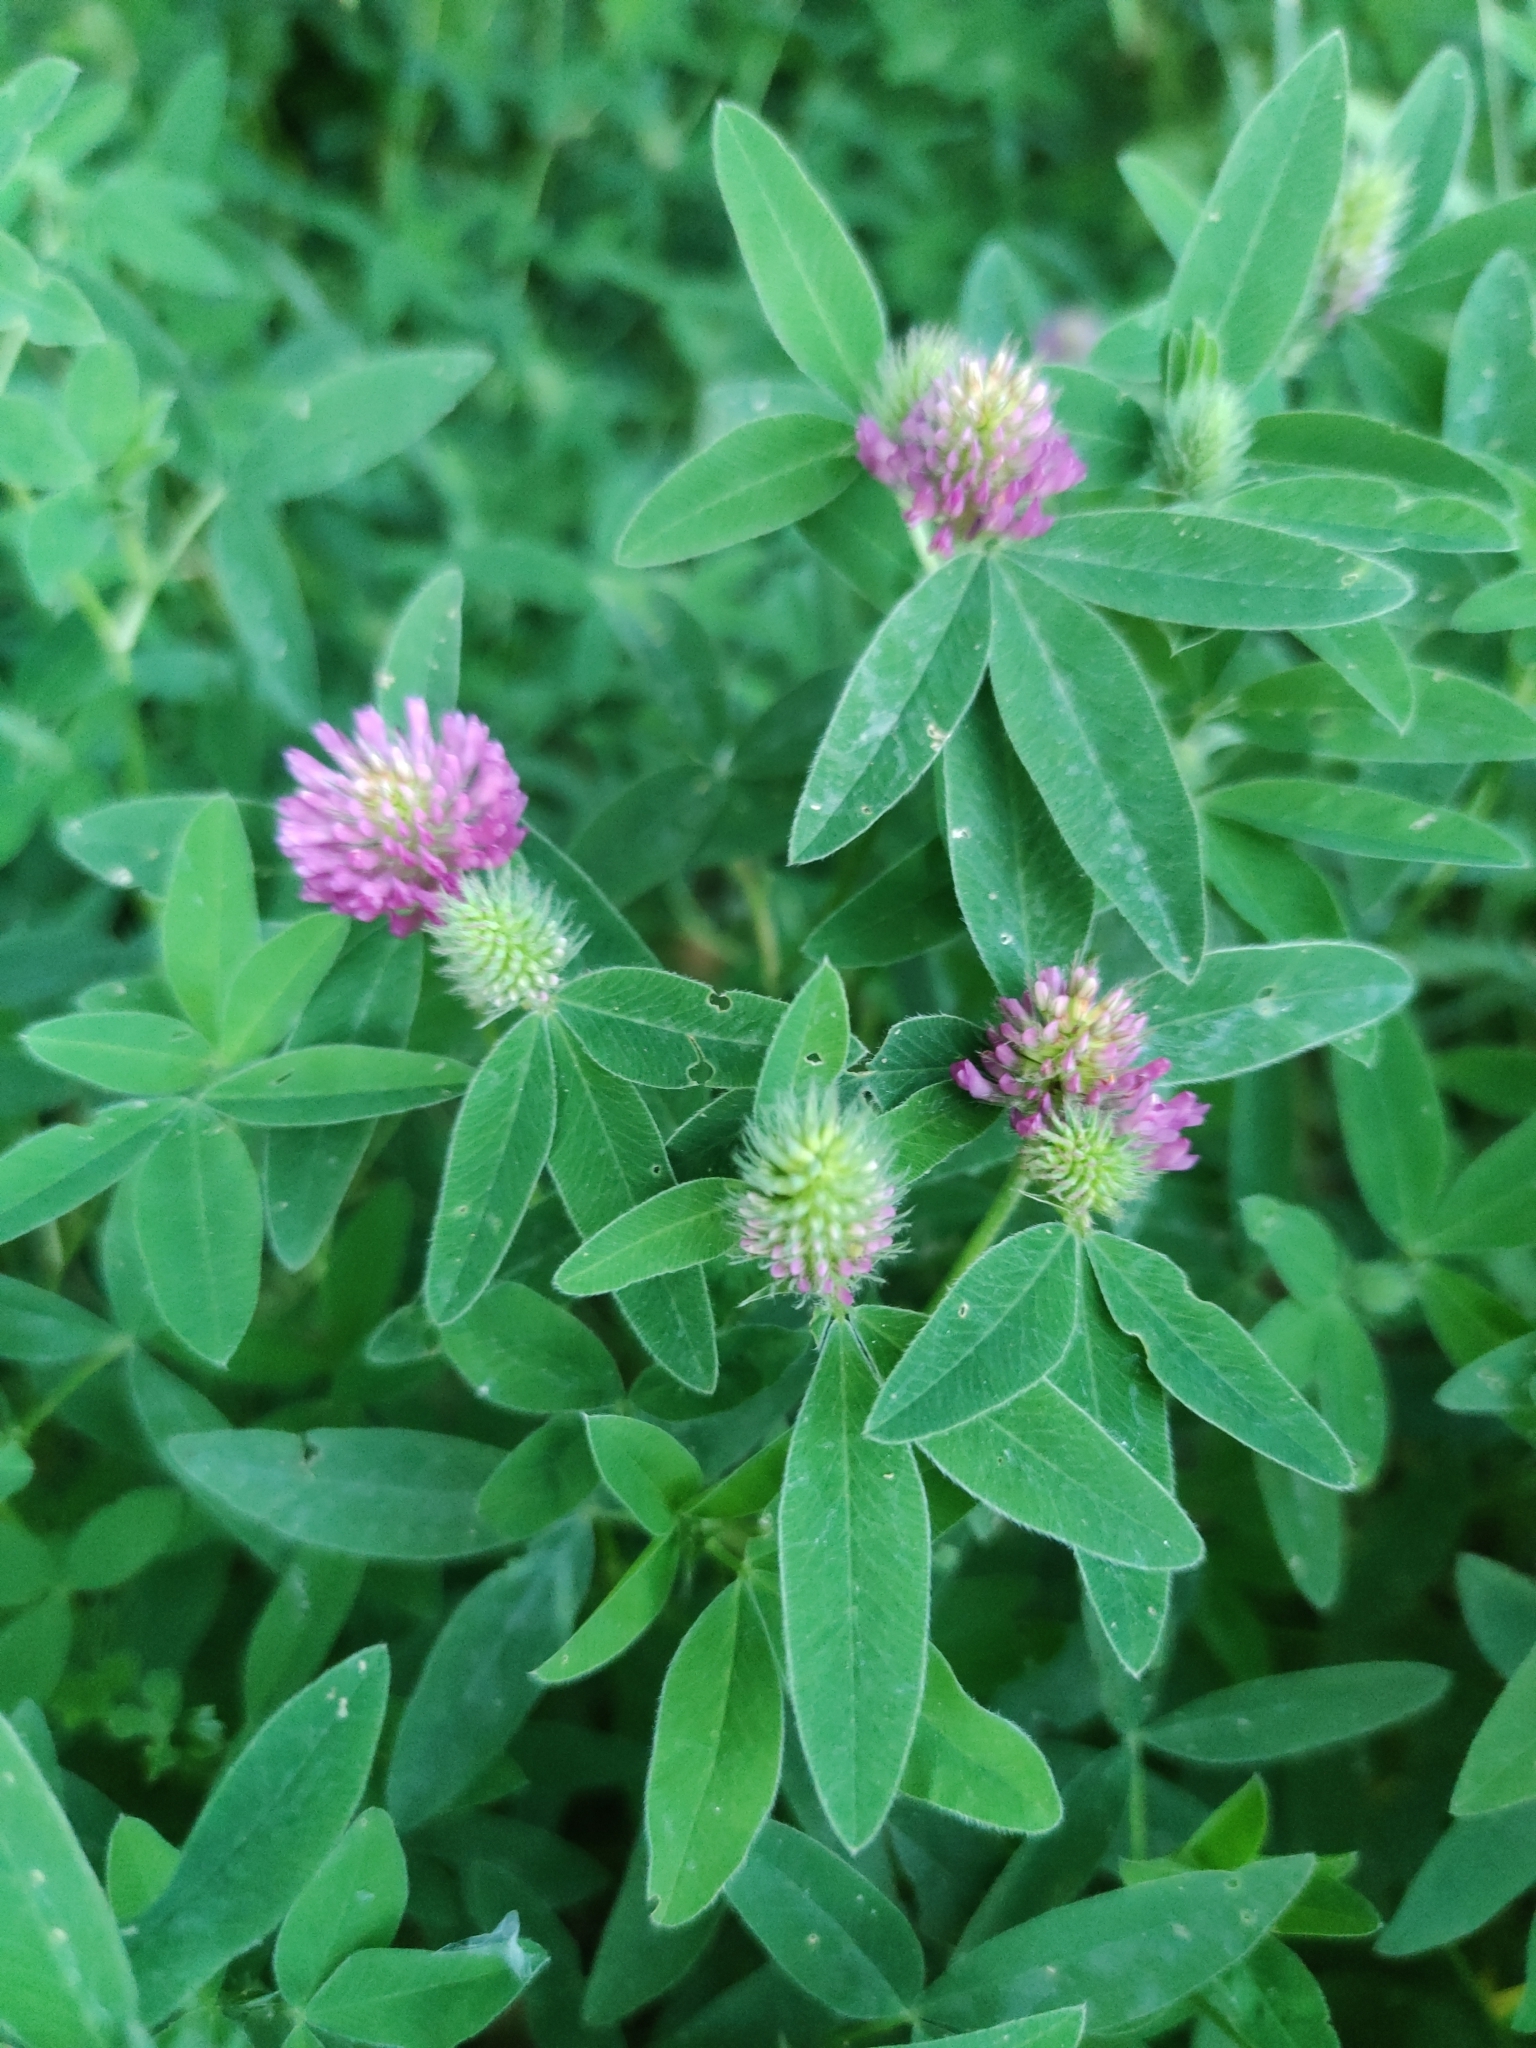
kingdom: Plantae
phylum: Tracheophyta
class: Magnoliopsida
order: Fabales
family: Fabaceae
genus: Trifolium
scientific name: Trifolium medium
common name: Zigzag clover
